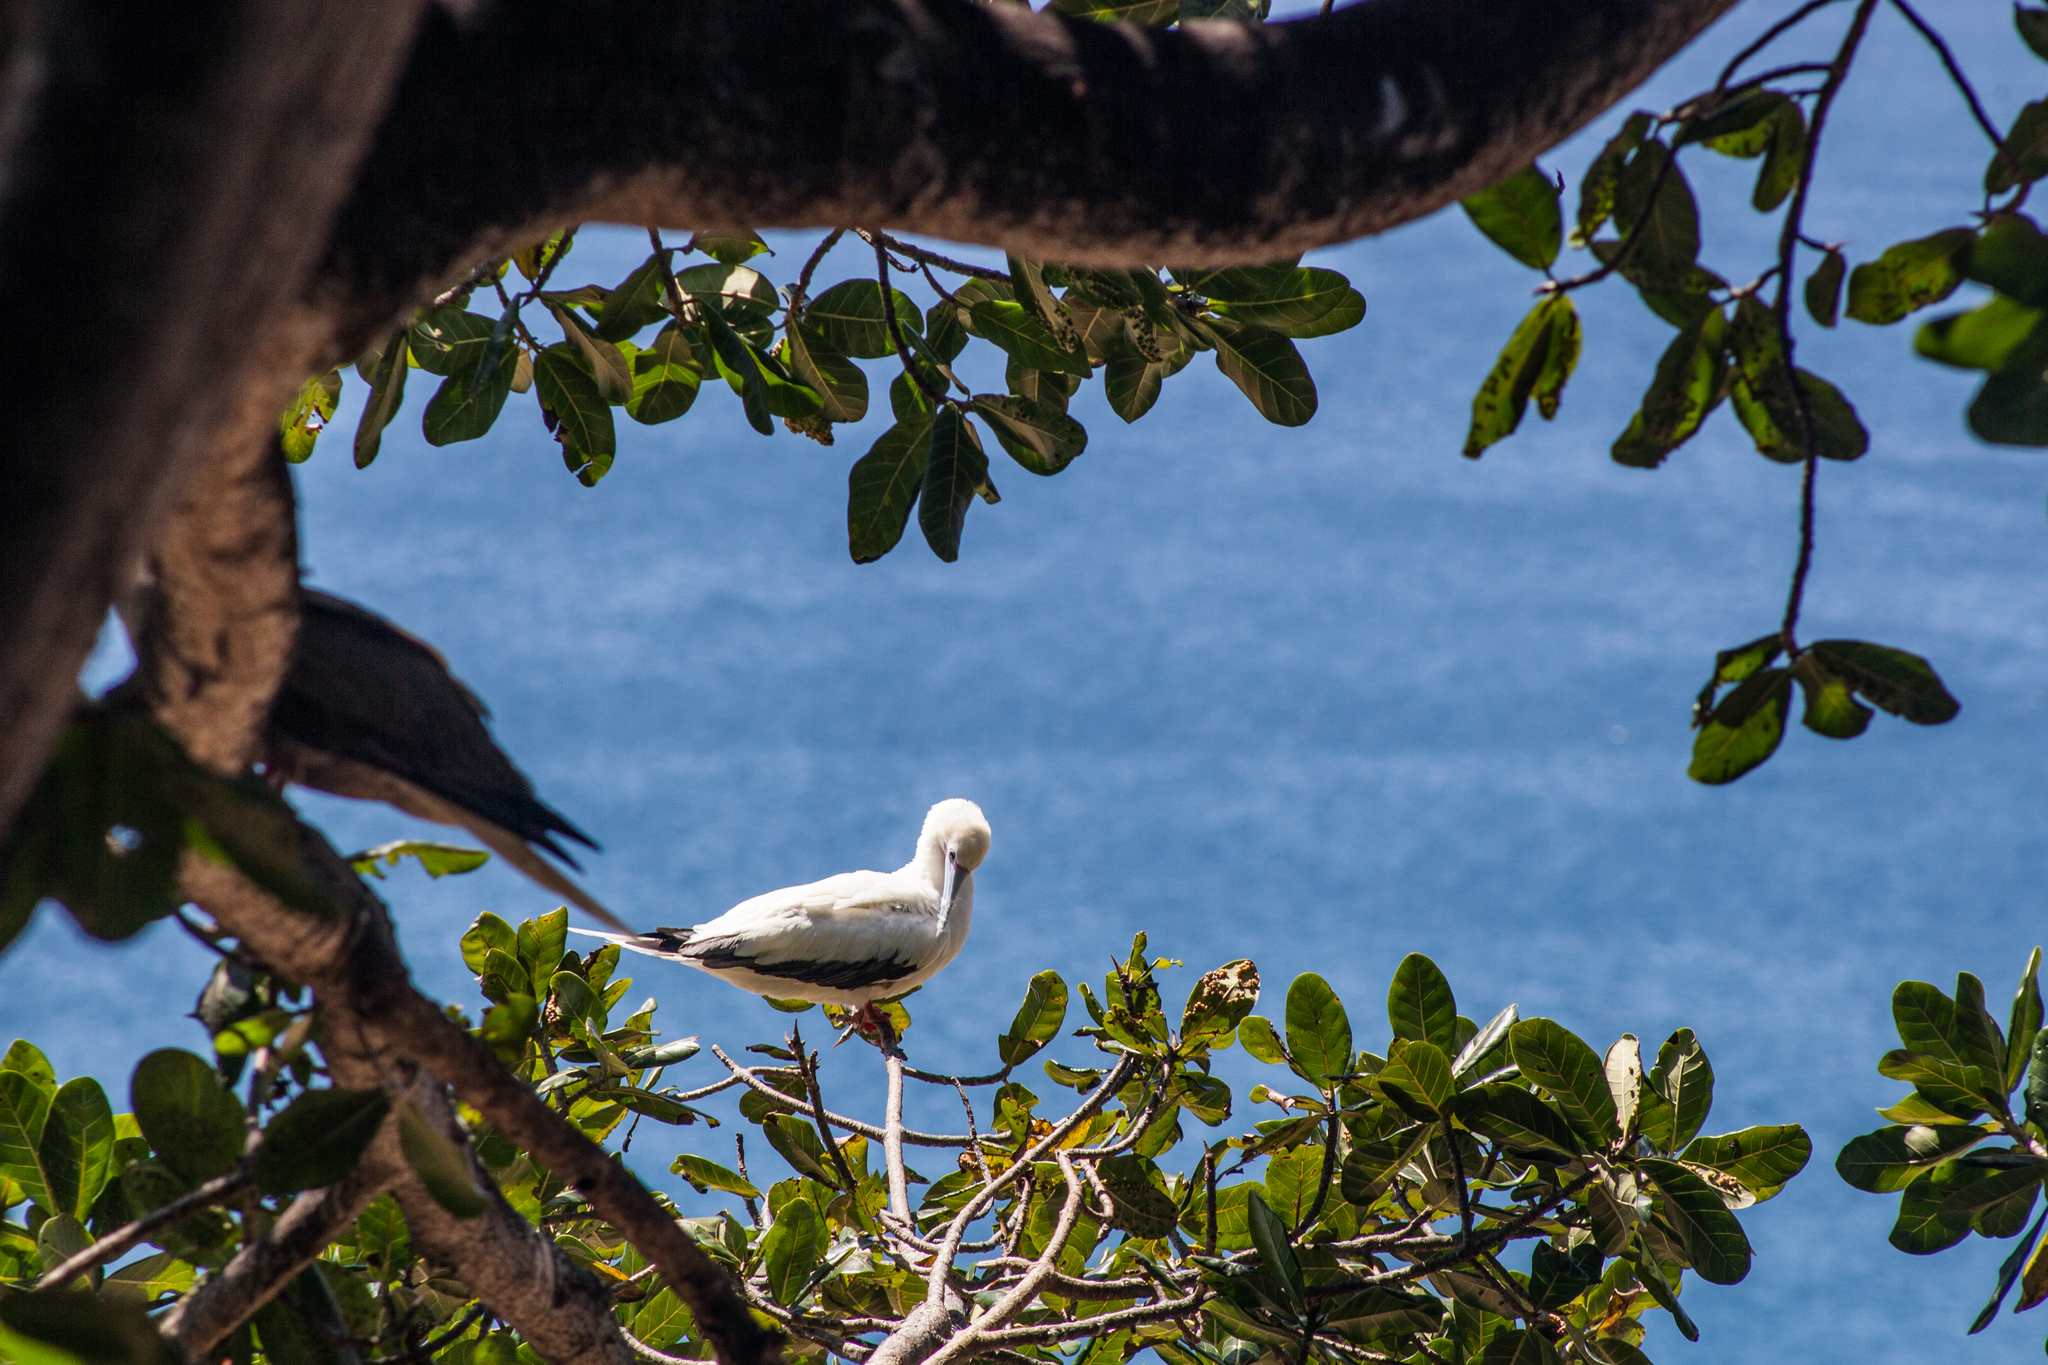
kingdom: Animalia
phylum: Chordata
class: Aves
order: Suliformes
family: Sulidae
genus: Sula
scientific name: Sula sula
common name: Red-footed booby
